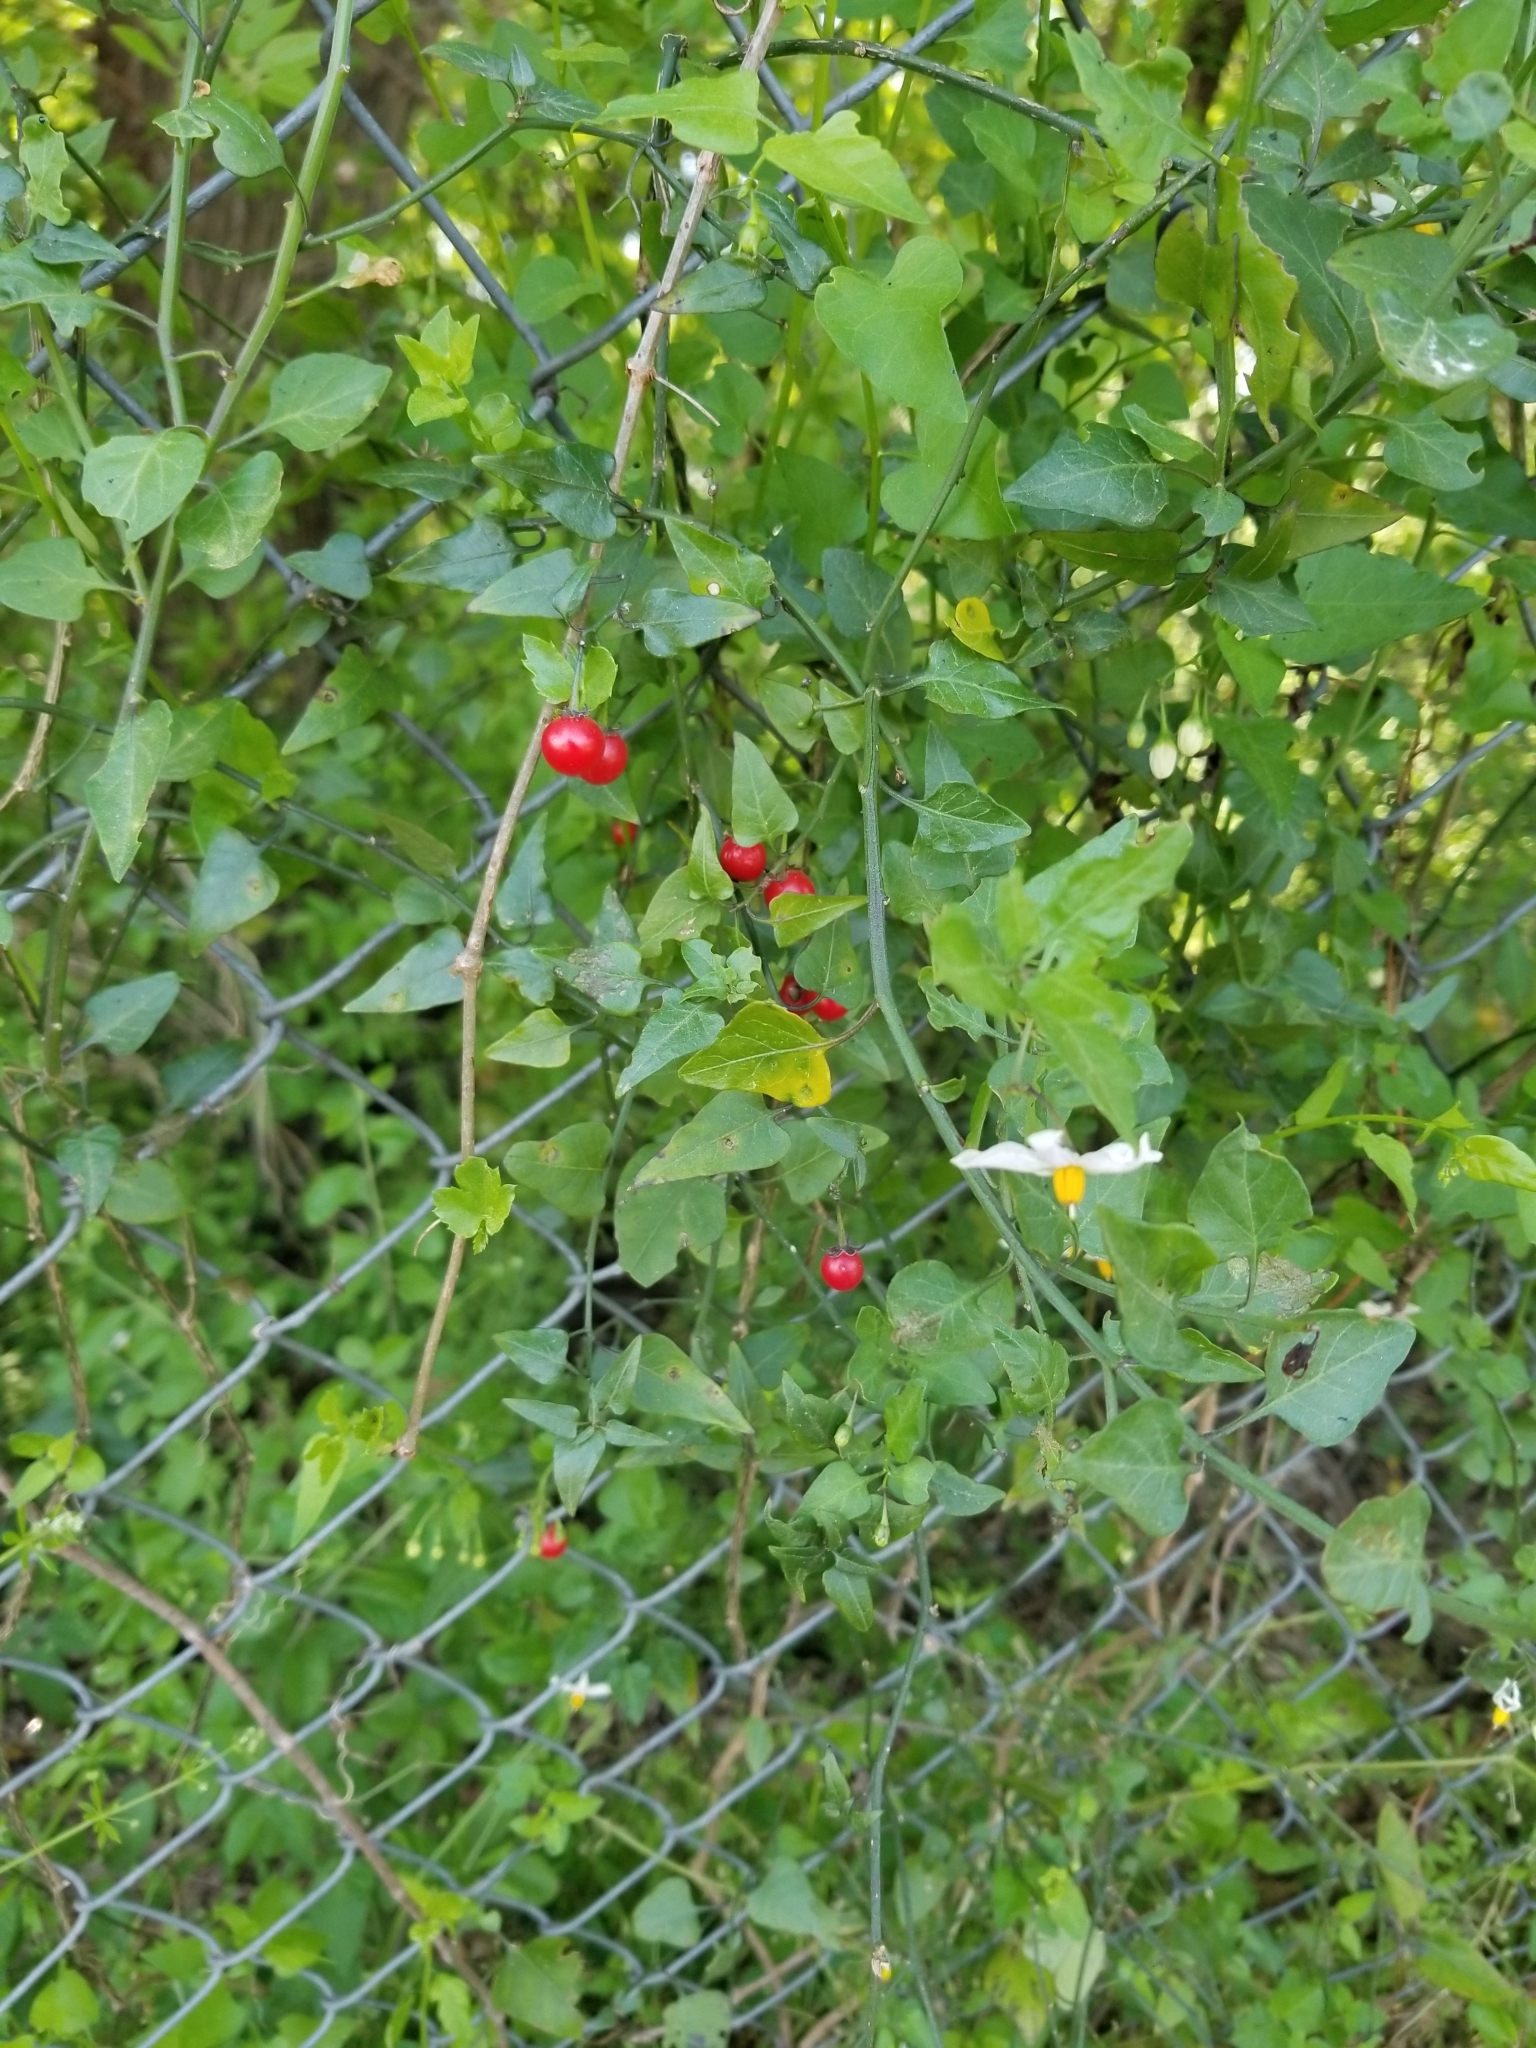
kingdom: Plantae
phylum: Tracheophyta
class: Magnoliopsida
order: Solanales
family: Solanaceae
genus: Solanum
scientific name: Solanum triquetrum
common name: Texas nightshade
